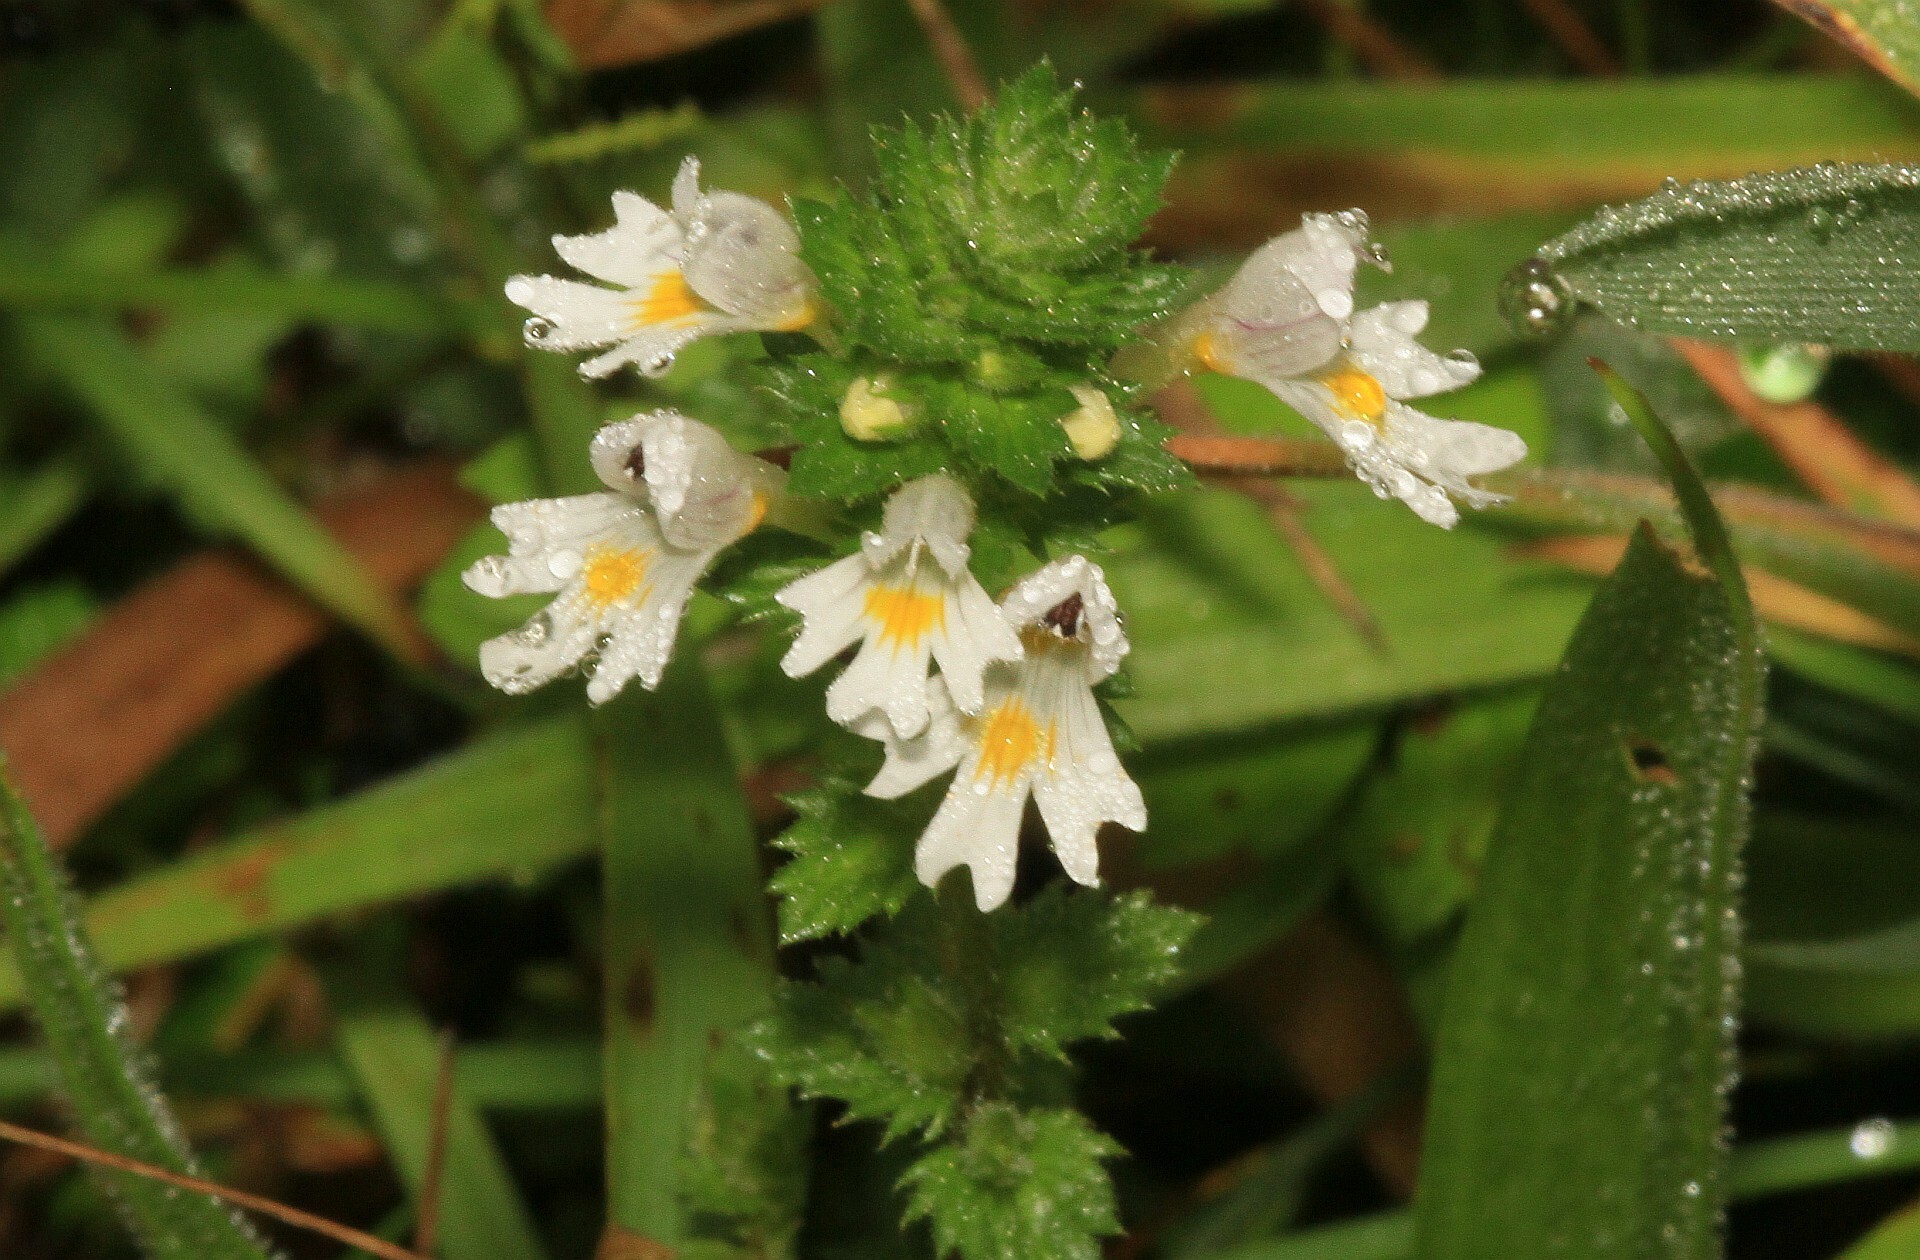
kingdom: Plantae
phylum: Tracheophyta
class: Magnoliopsida
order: Lamiales
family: Orobanchaceae
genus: Euphrasia
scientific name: Euphrasia officinalis
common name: Eyebright
